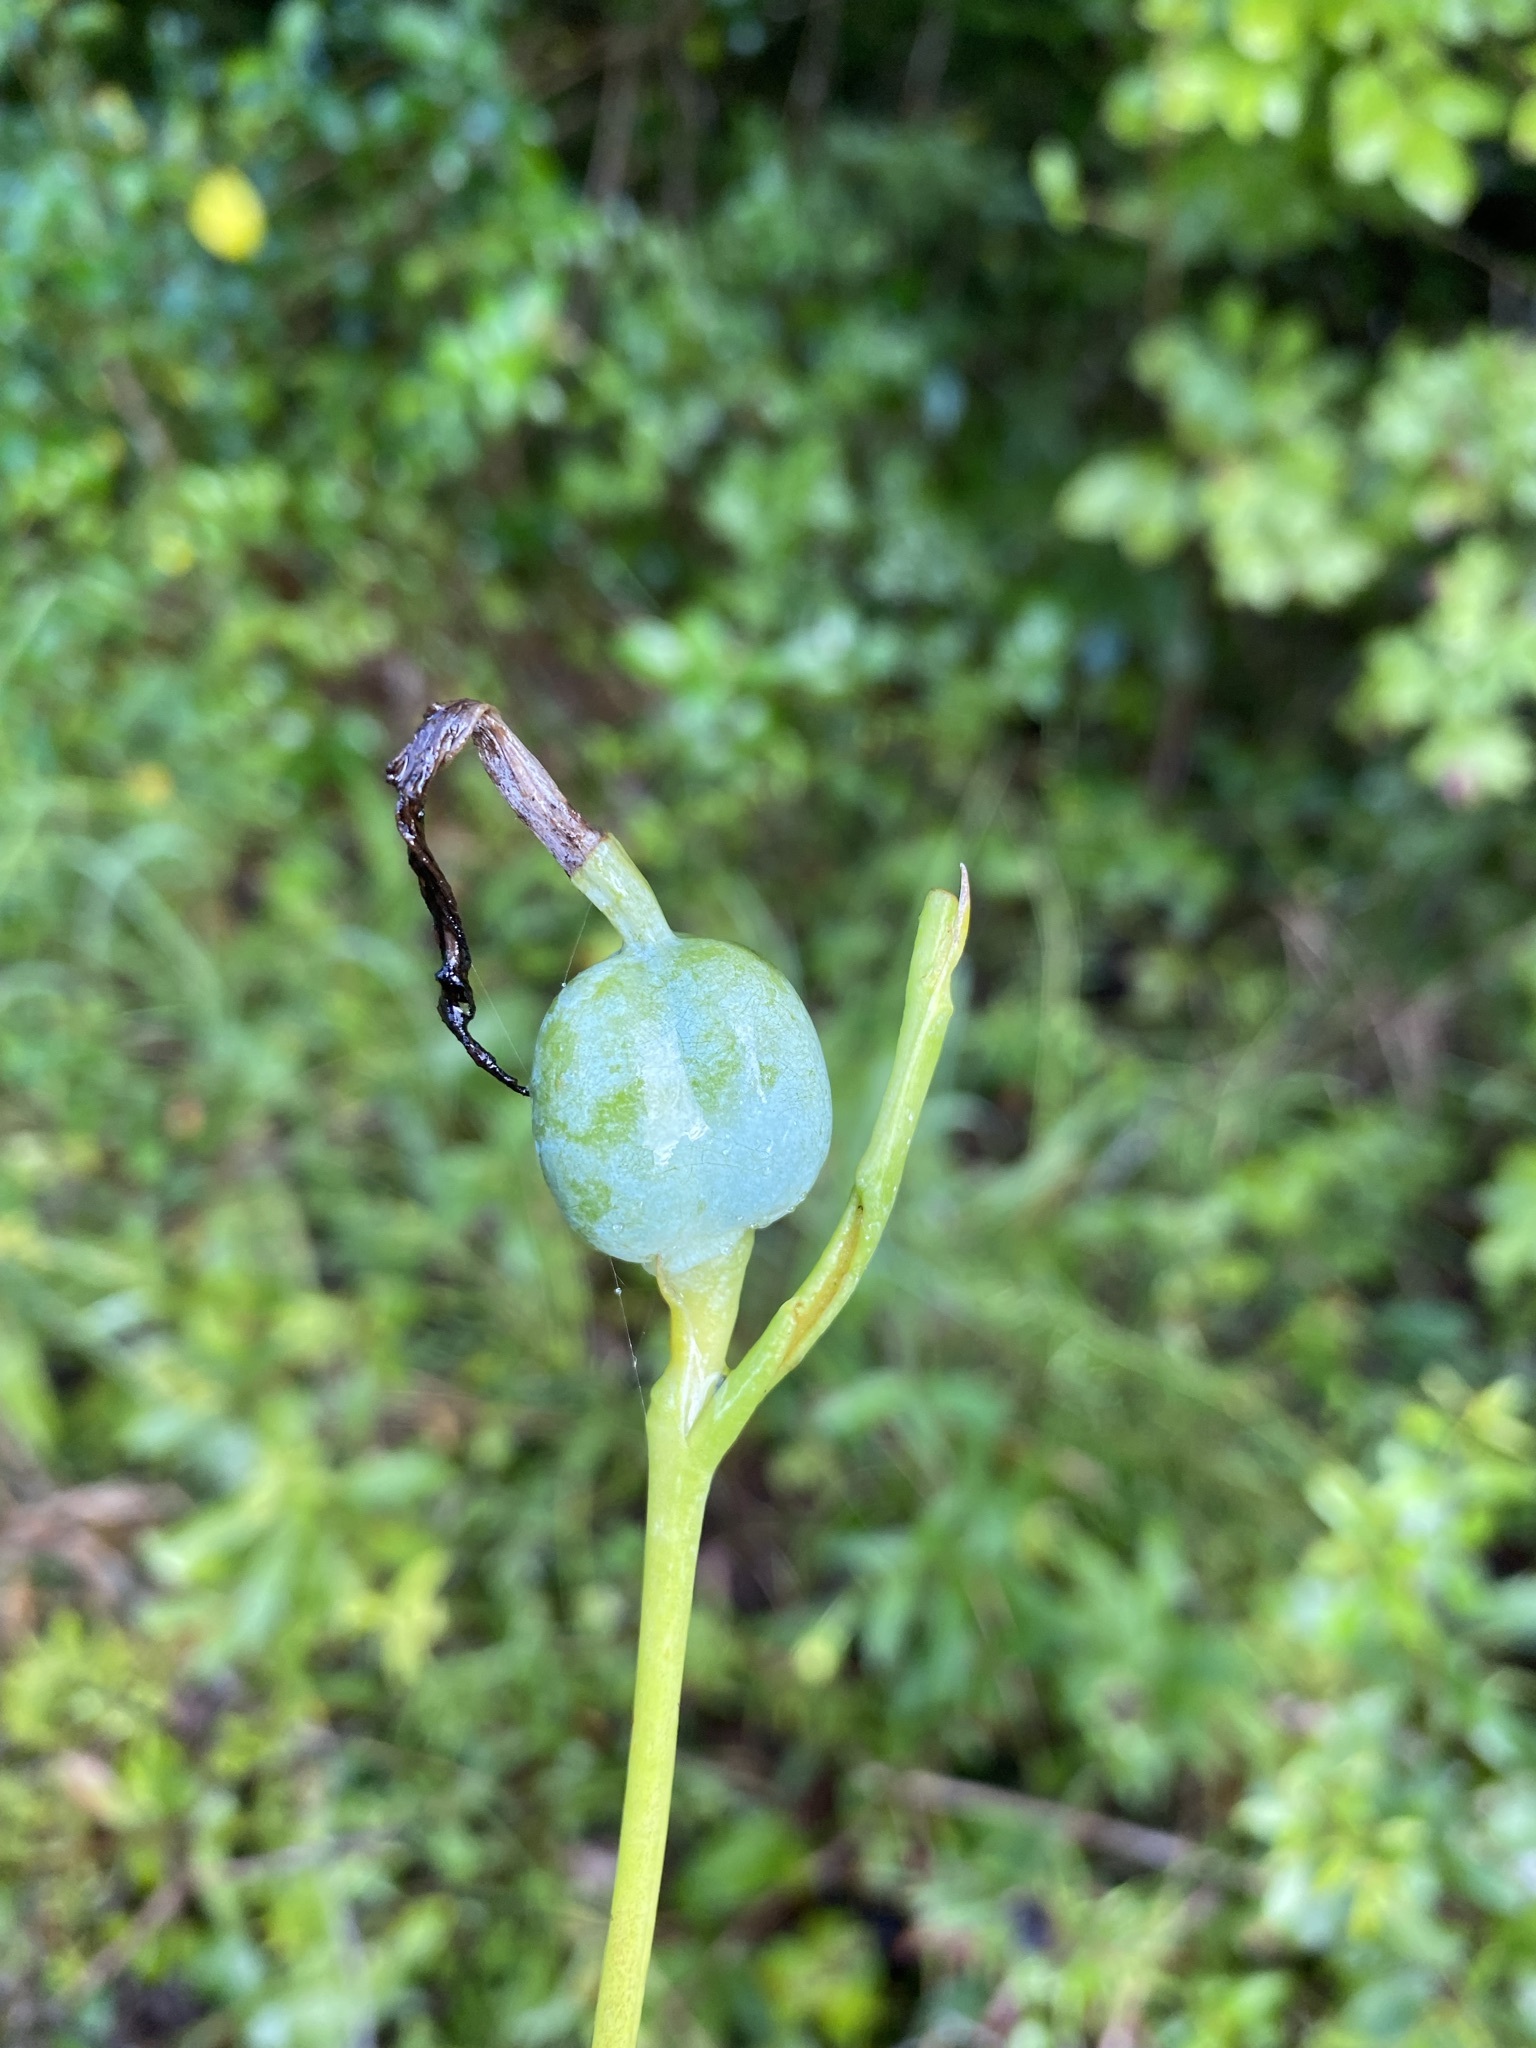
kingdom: Plantae
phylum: Tracheophyta
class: Liliopsida
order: Asparagales
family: Asparagaceae
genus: Agave
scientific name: Agave virginica
